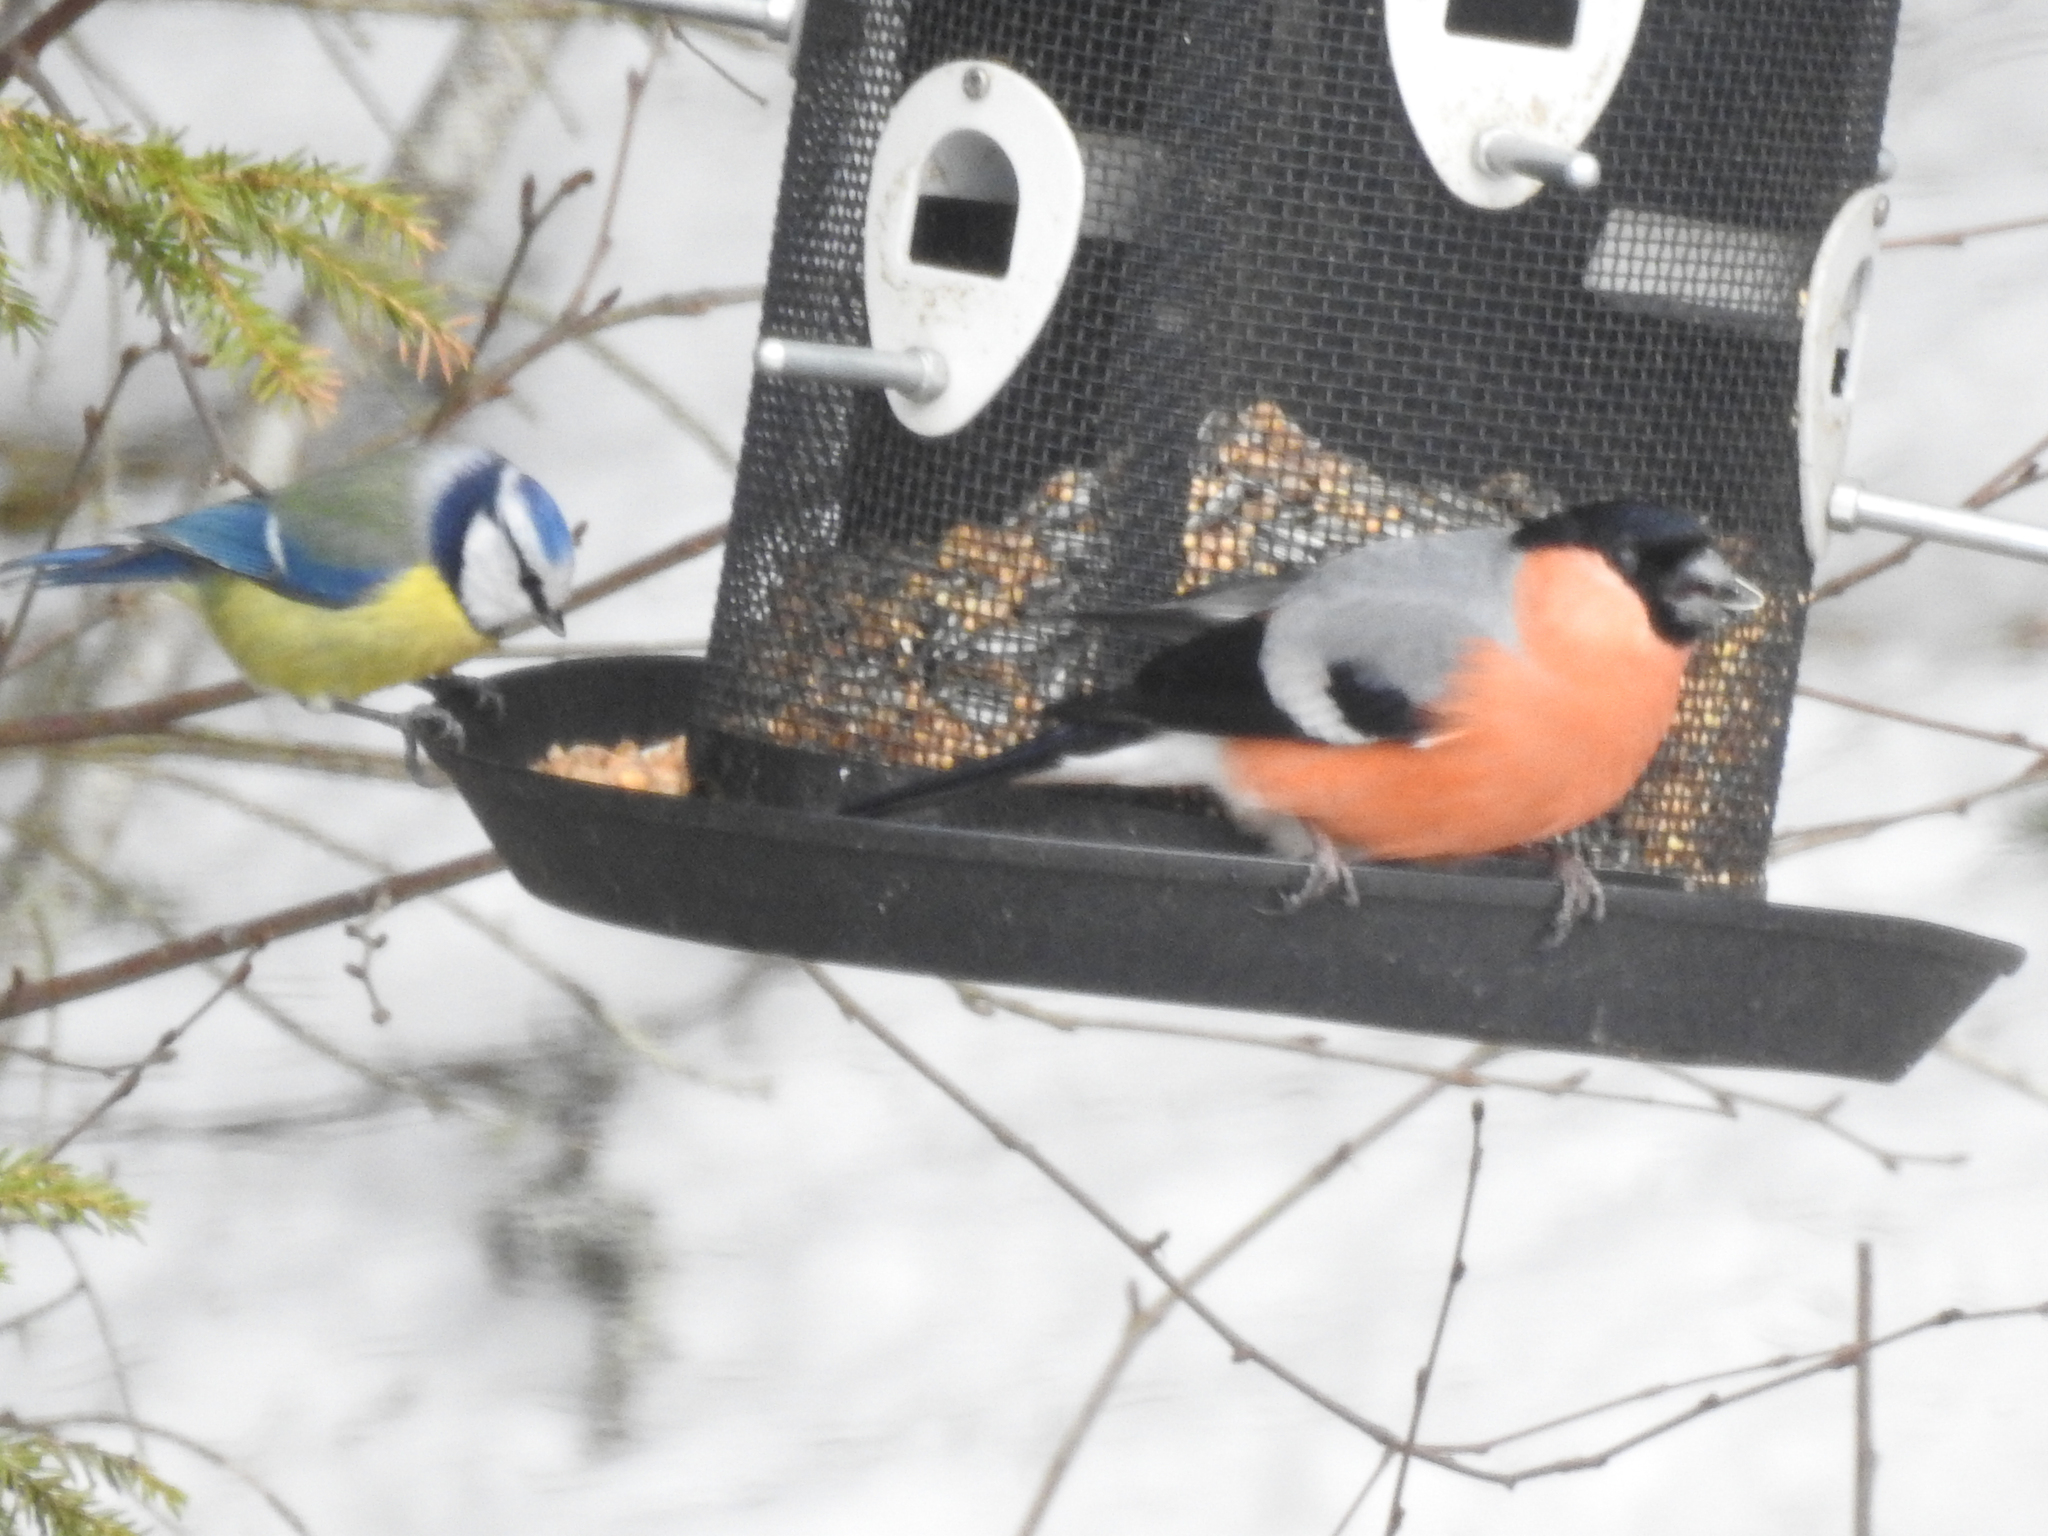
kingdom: Animalia
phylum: Chordata
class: Aves
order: Passeriformes
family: Fringillidae
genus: Pyrrhula
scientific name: Pyrrhula pyrrhula
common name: Eurasian bullfinch
